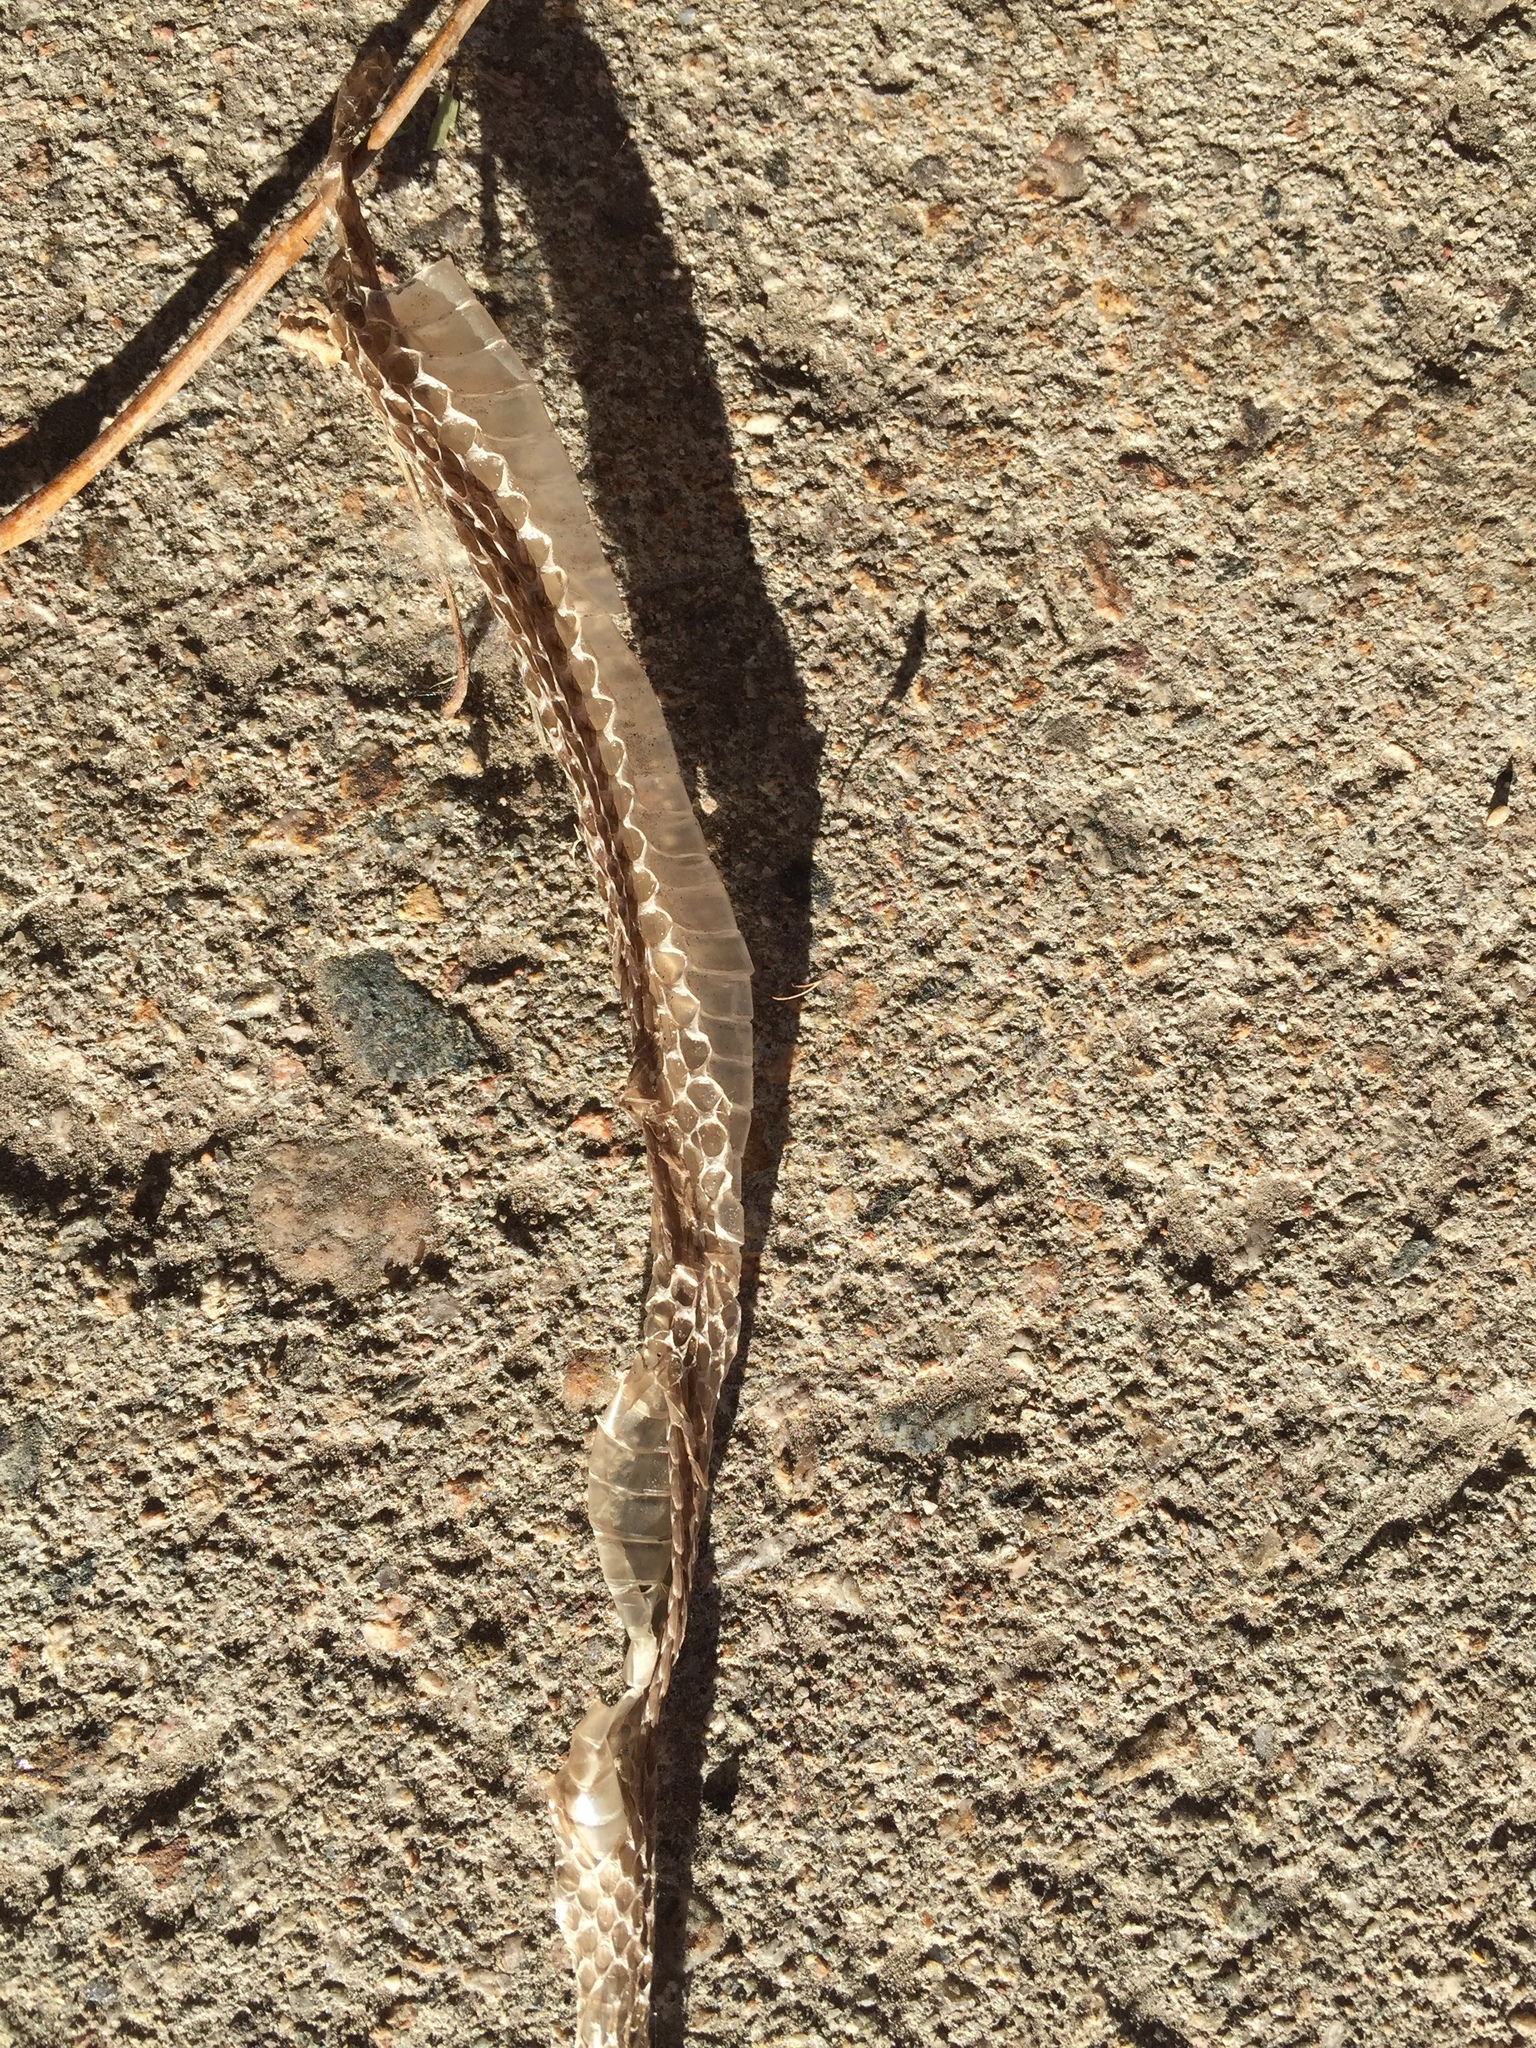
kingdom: Animalia
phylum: Chordata
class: Squamata
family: Colubridae
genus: Thamnophis
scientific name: Thamnophis
